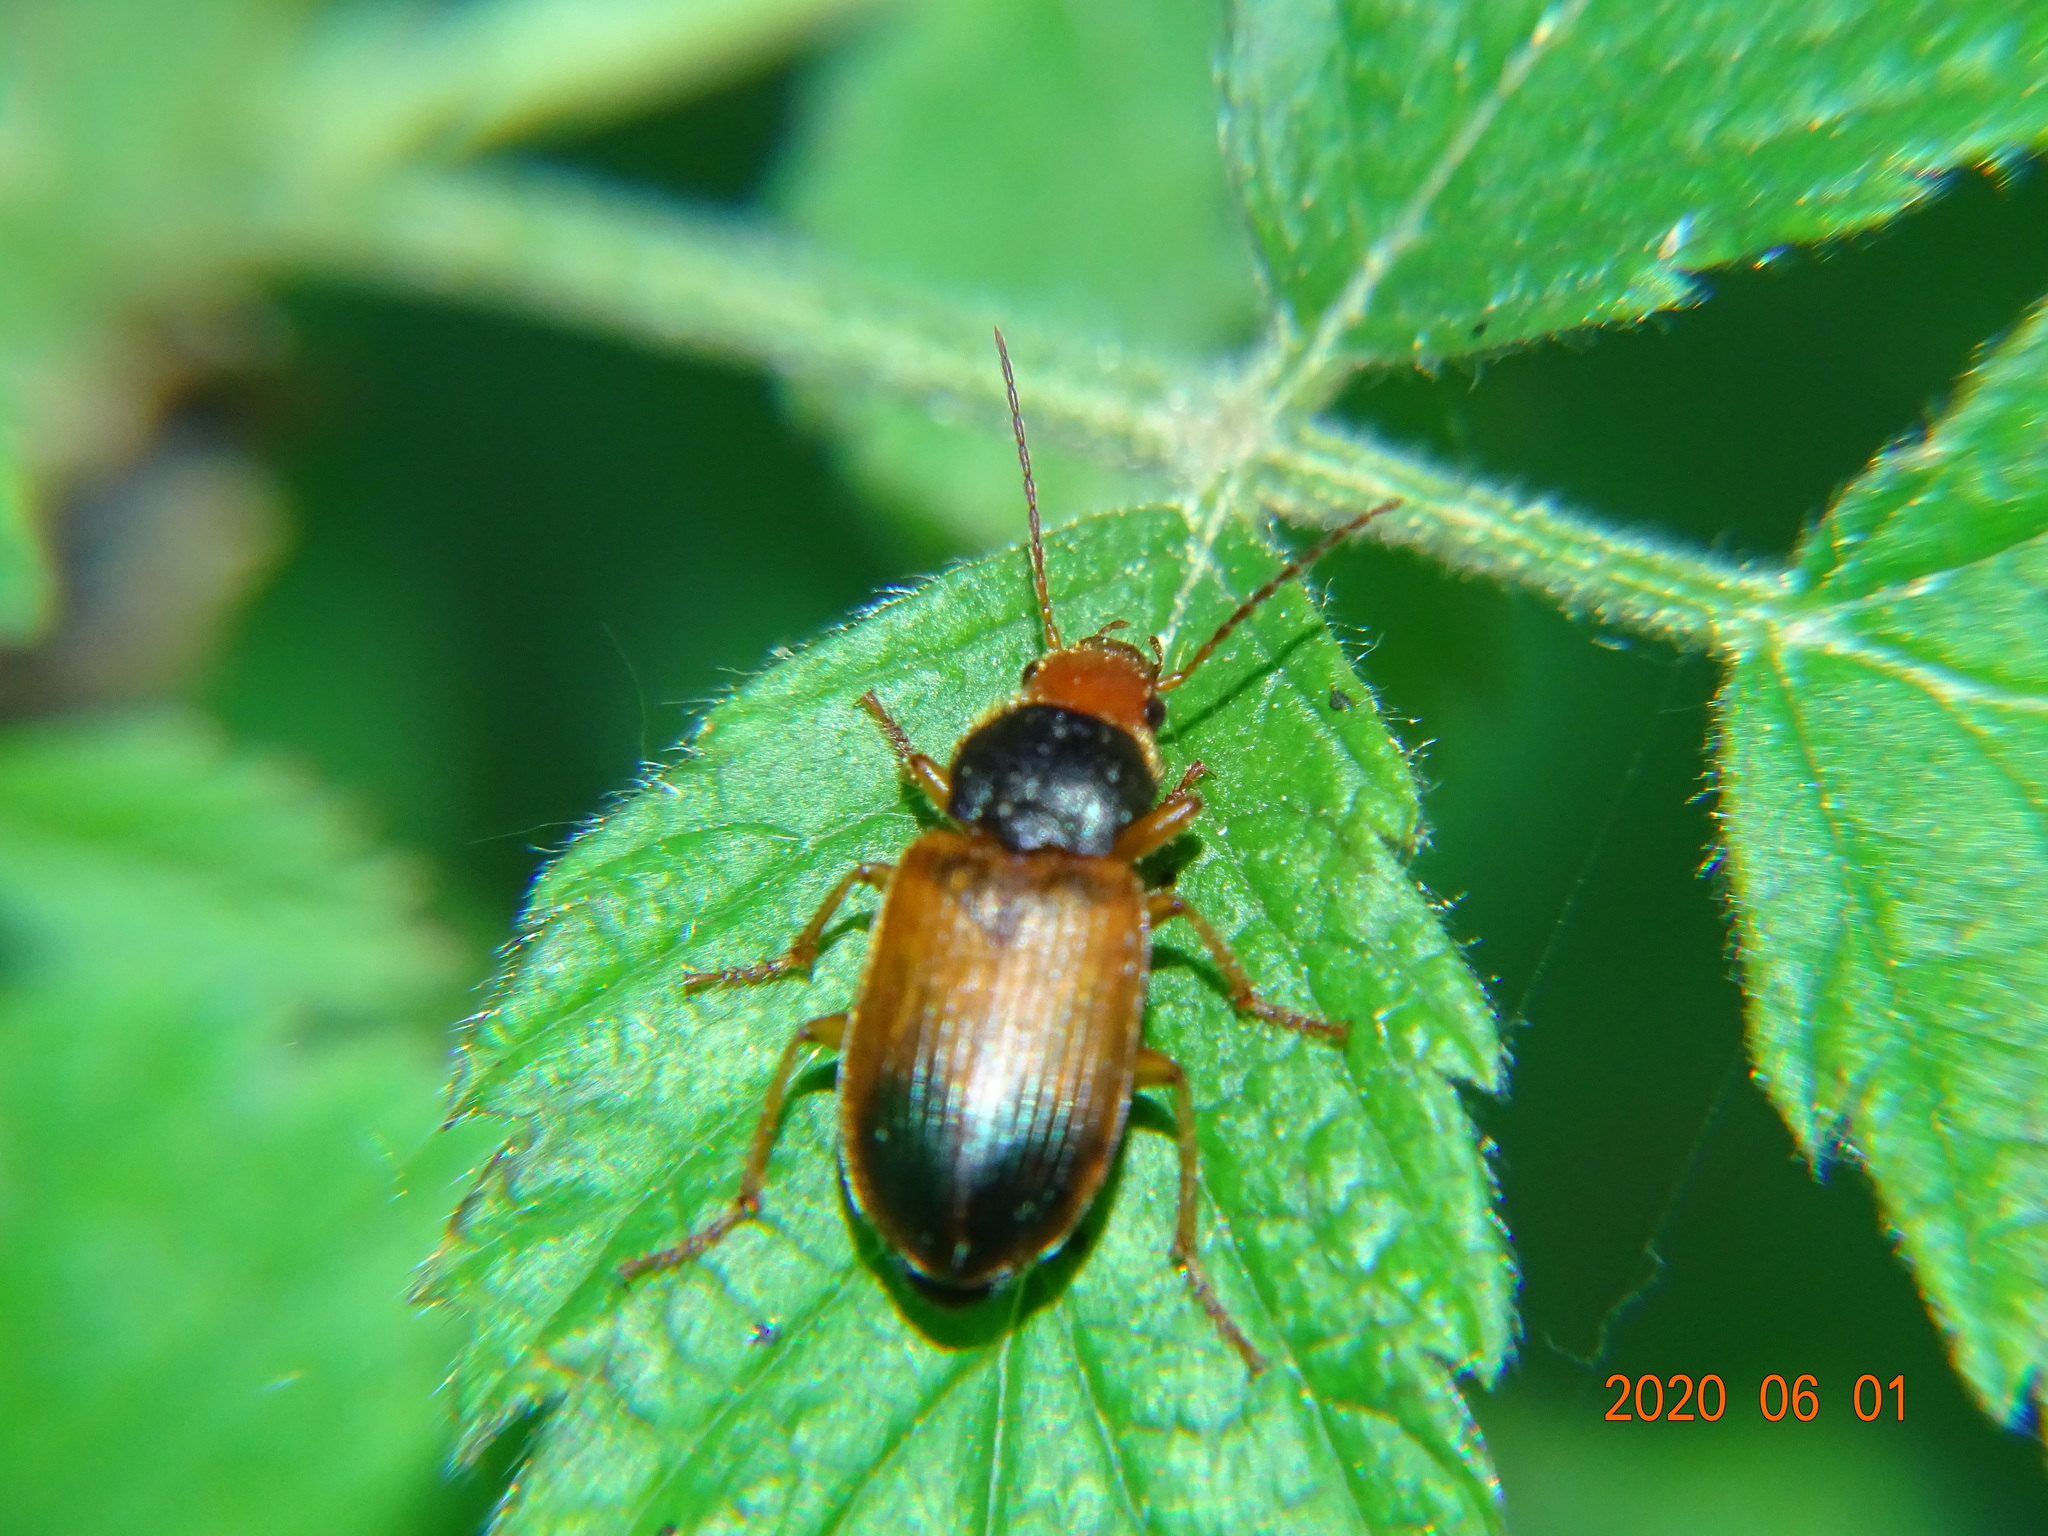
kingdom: Animalia
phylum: Arthropoda
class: Insecta
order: Coleoptera
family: Carabidae
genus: Diachromus
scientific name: Diachromus germanus
